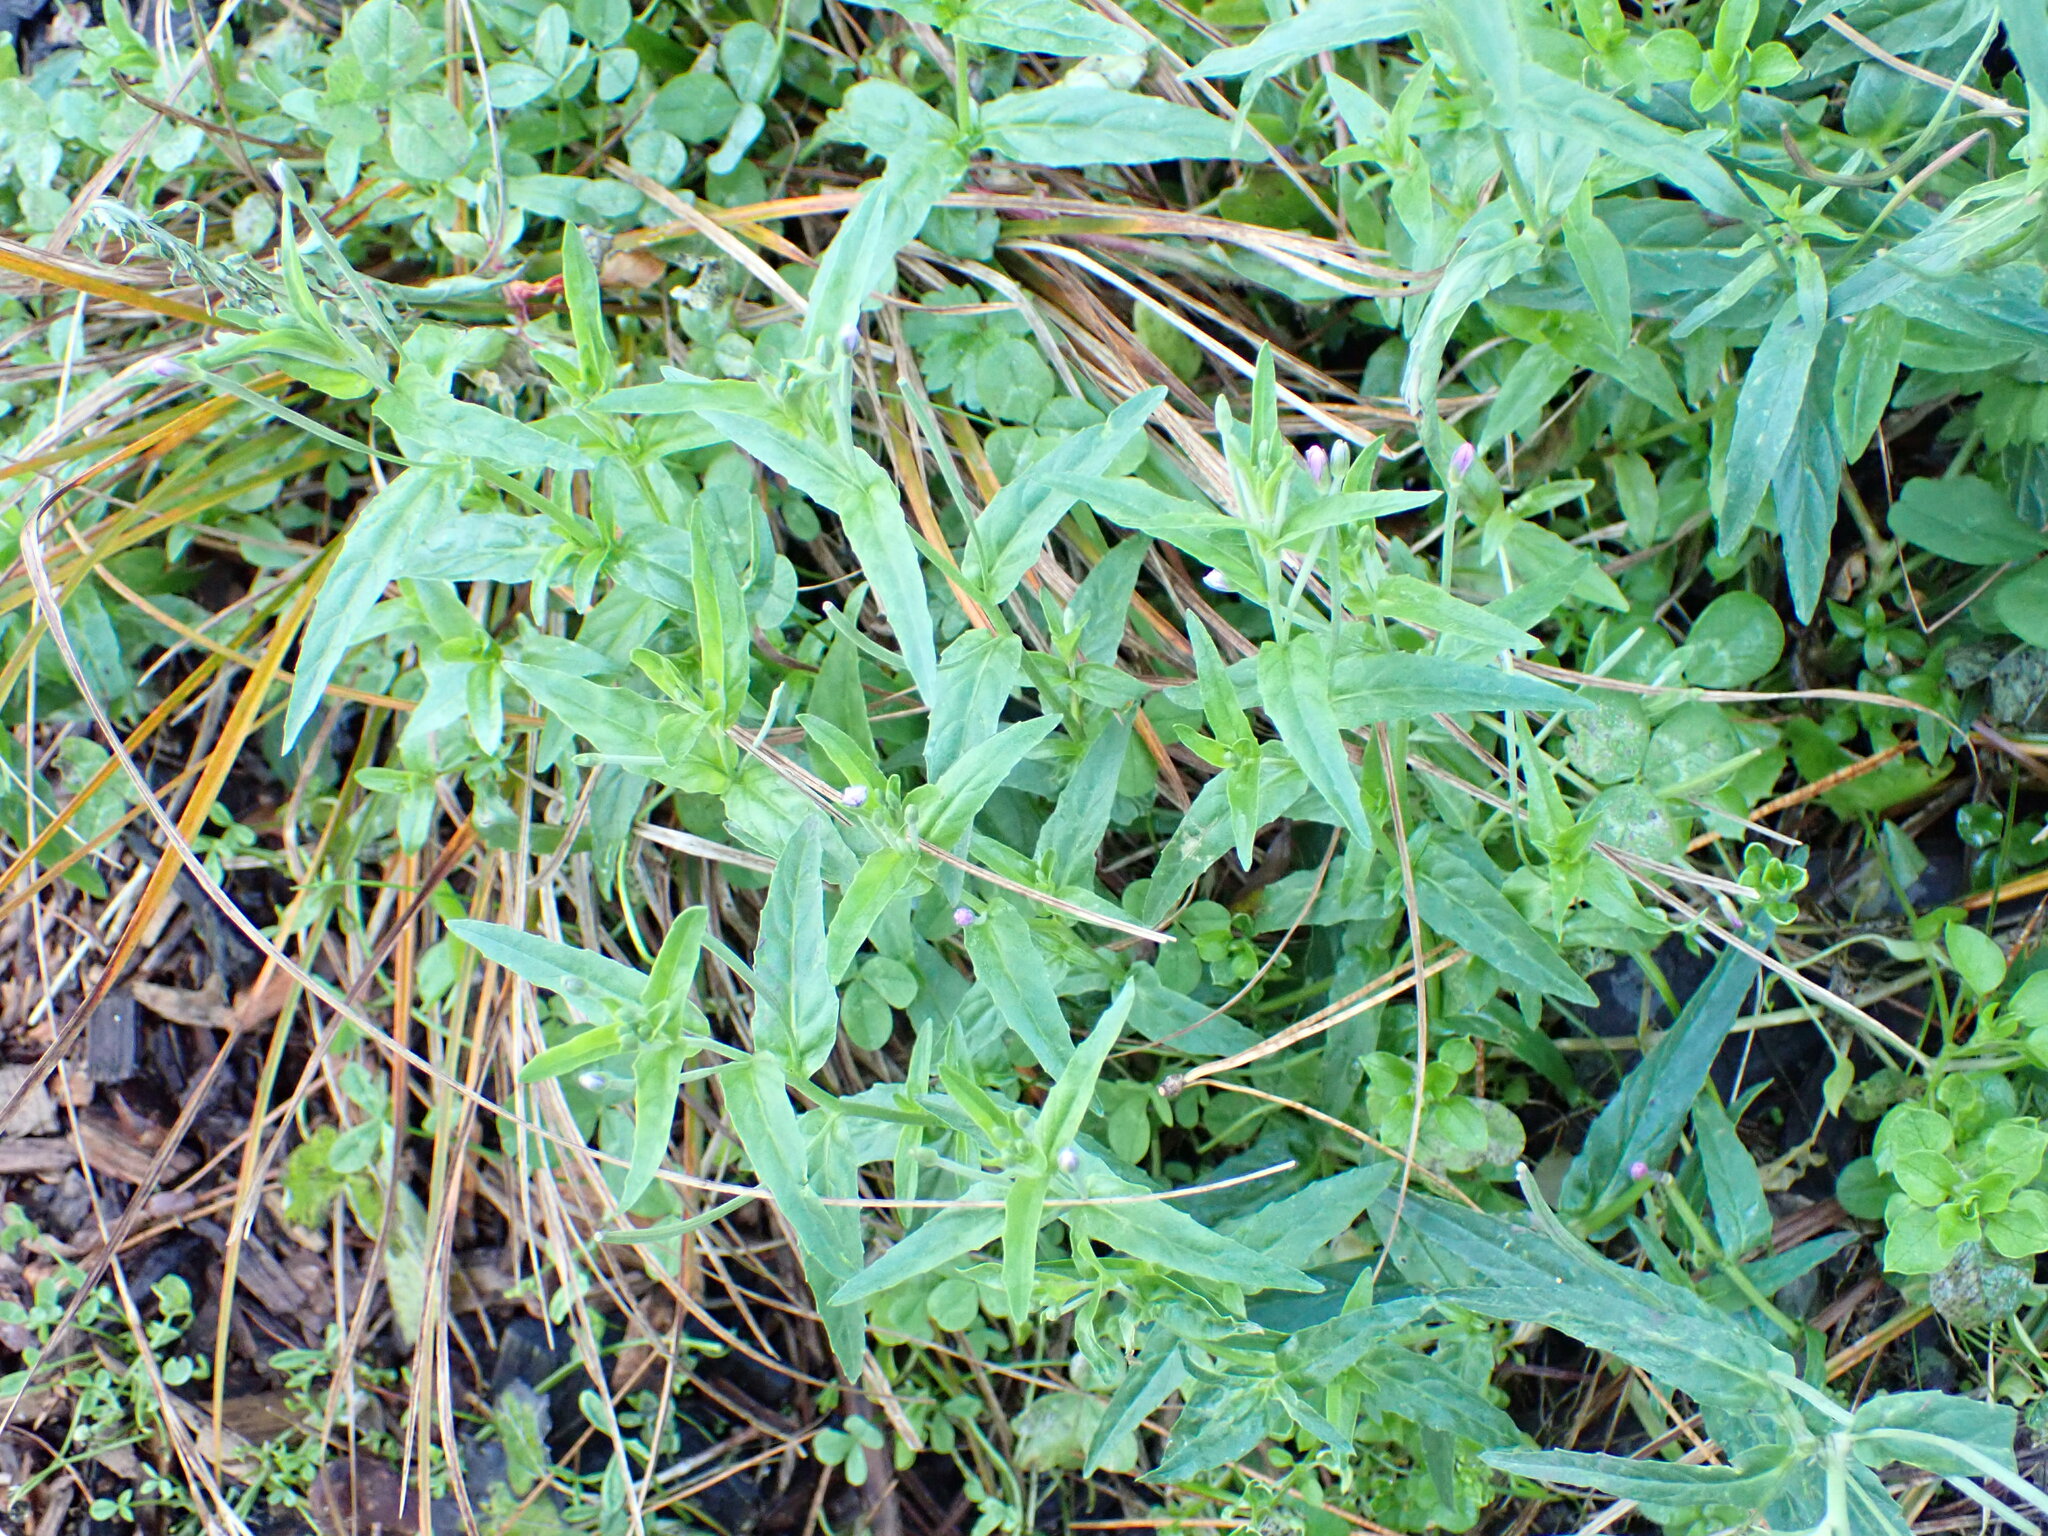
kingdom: Plantae
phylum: Tracheophyta
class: Magnoliopsida
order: Myrtales
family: Onagraceae
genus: Epilobium
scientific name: Epilobium obscurum
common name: Short-fruited willowherb
